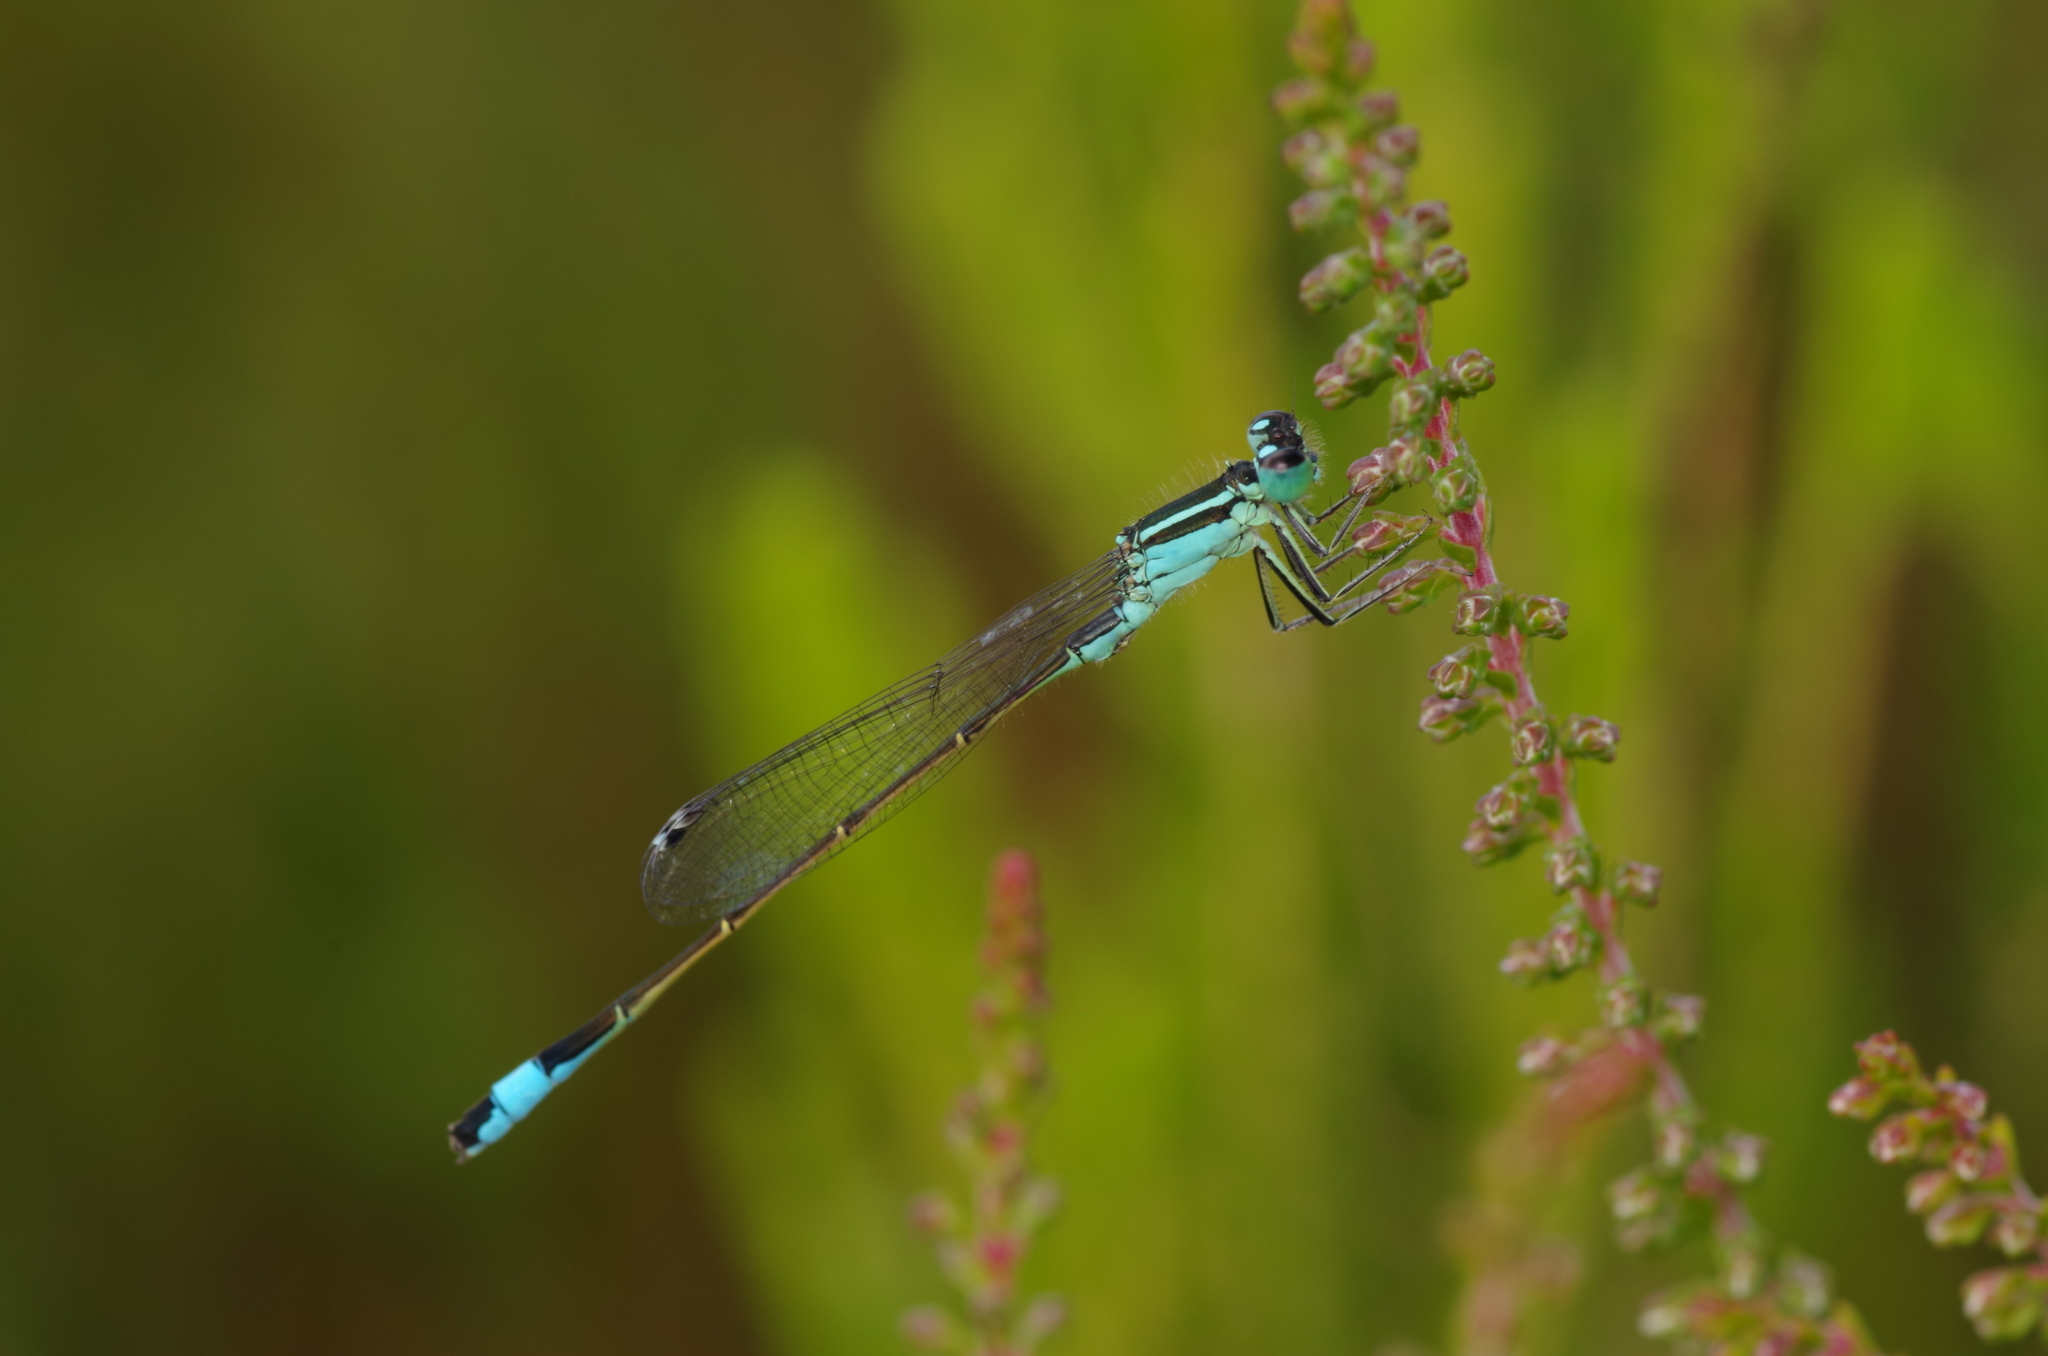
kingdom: Animalia
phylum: Arthropoda
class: Insecta
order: Odonata
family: Coenagrionidae
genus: Ischnura
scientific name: Ischnura elegans
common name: Blue-tailed damselfly
